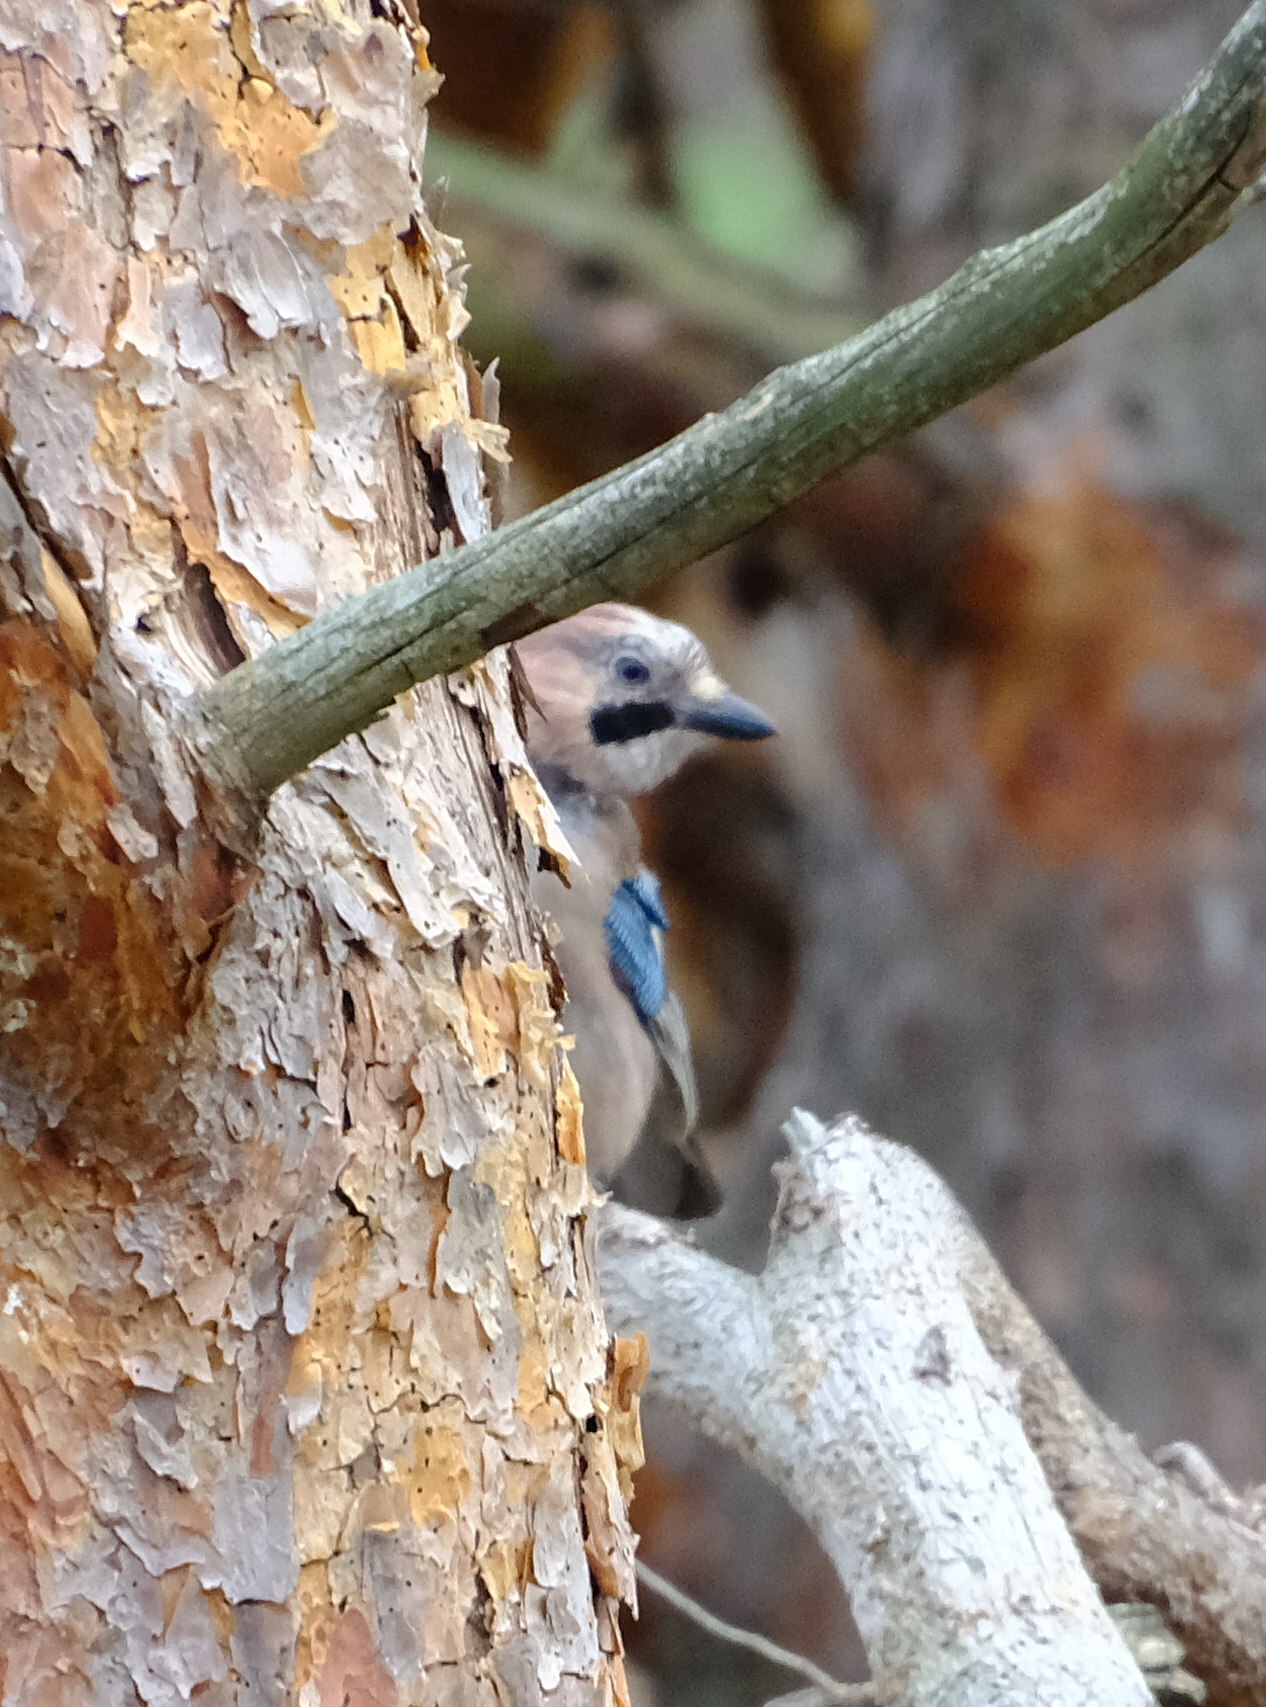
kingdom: Animalia
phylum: Chordata
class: Aves
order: Passeriformes
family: Corvidae
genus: Garrulus
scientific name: Garrulus glandarius
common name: Eurasian jay
